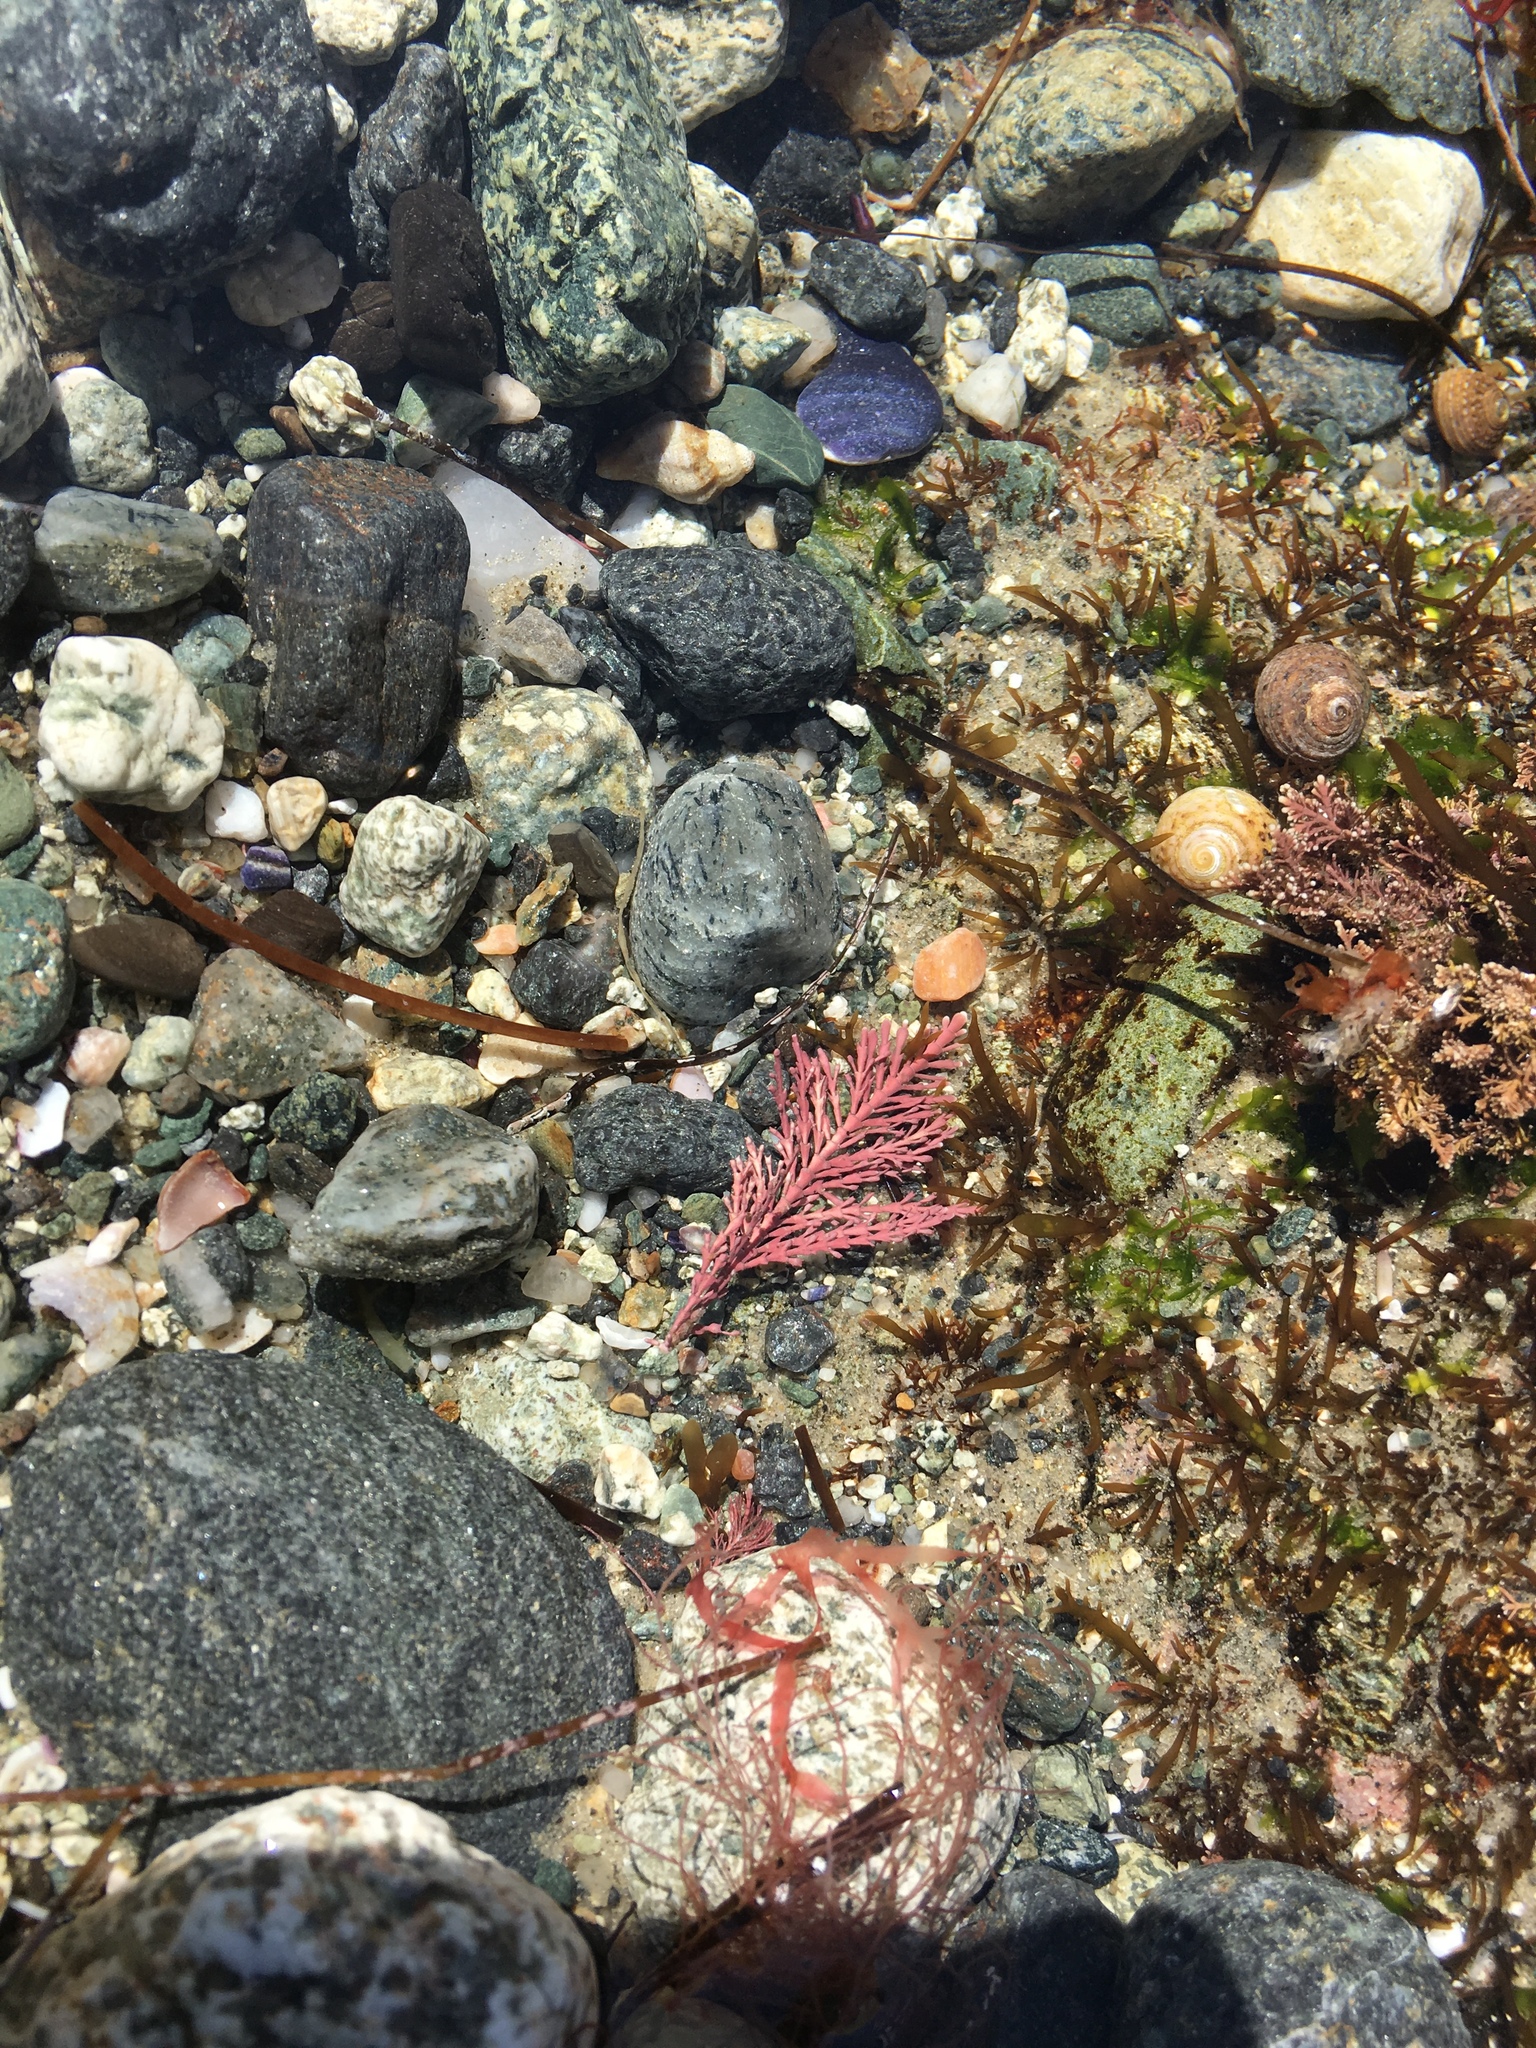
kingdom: Plantae
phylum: Rhodophyta
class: Florideophyceae
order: Corallinales
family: Corallinaceae
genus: Corallina
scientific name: Corallina officinalis
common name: Coral weed
